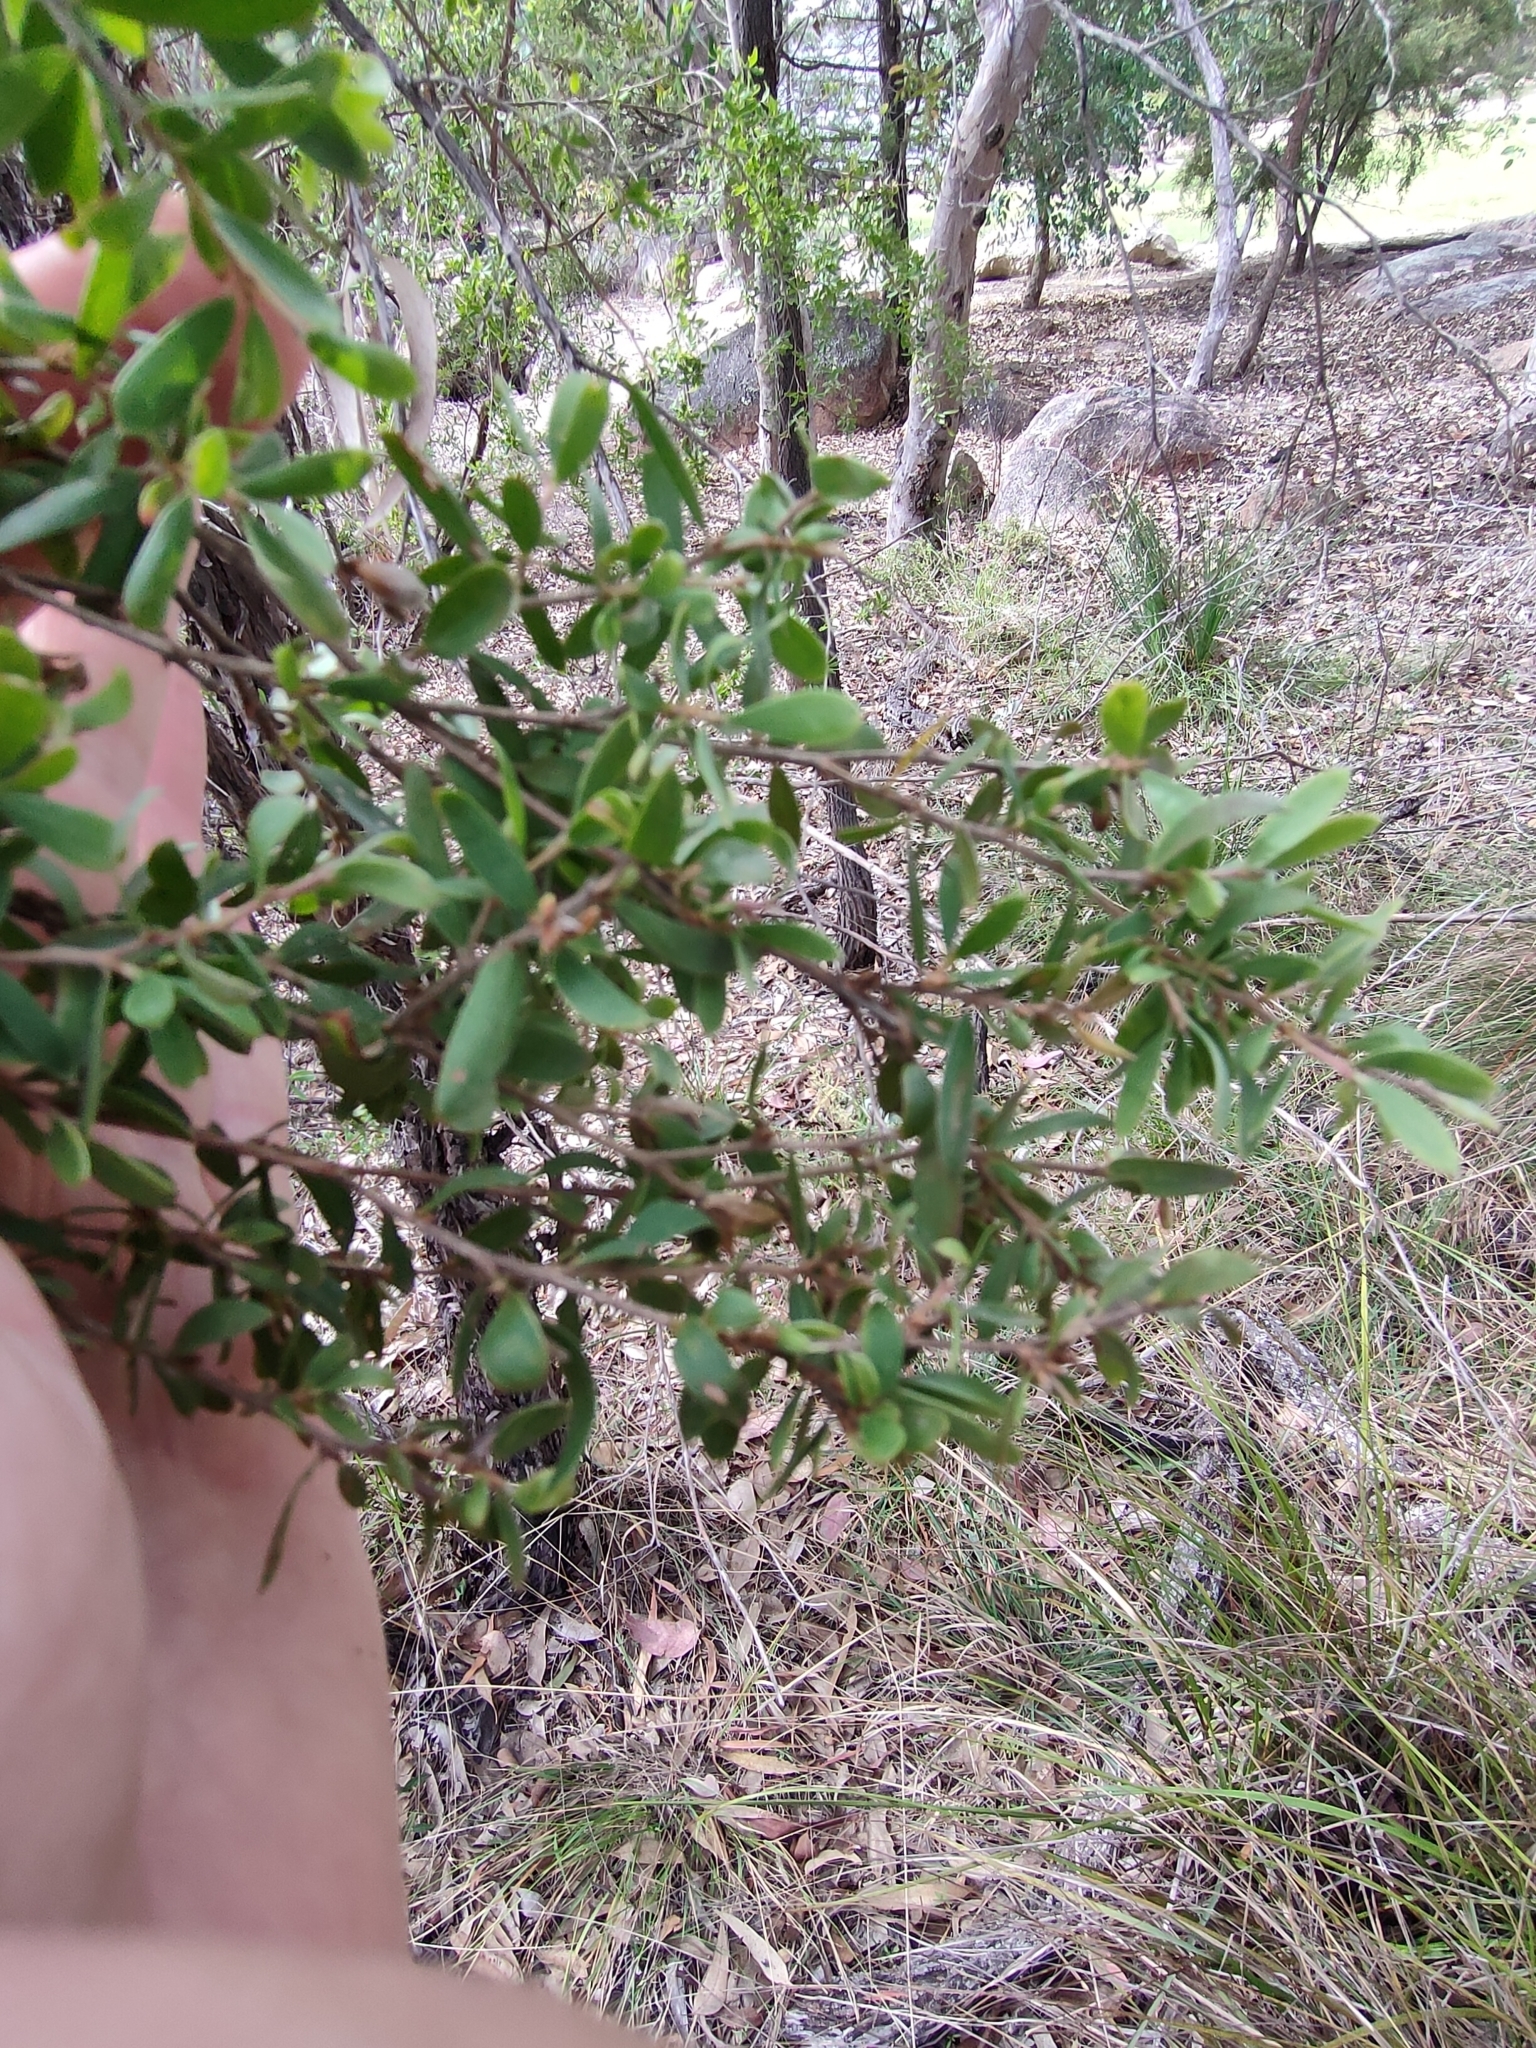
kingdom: Plantae
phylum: Tracheophyta
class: Magnoliopsida
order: Myrtales
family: Myrtaceae
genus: Leptospermum
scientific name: Leptospermum trinervium
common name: Flaky-barked tea-tree
